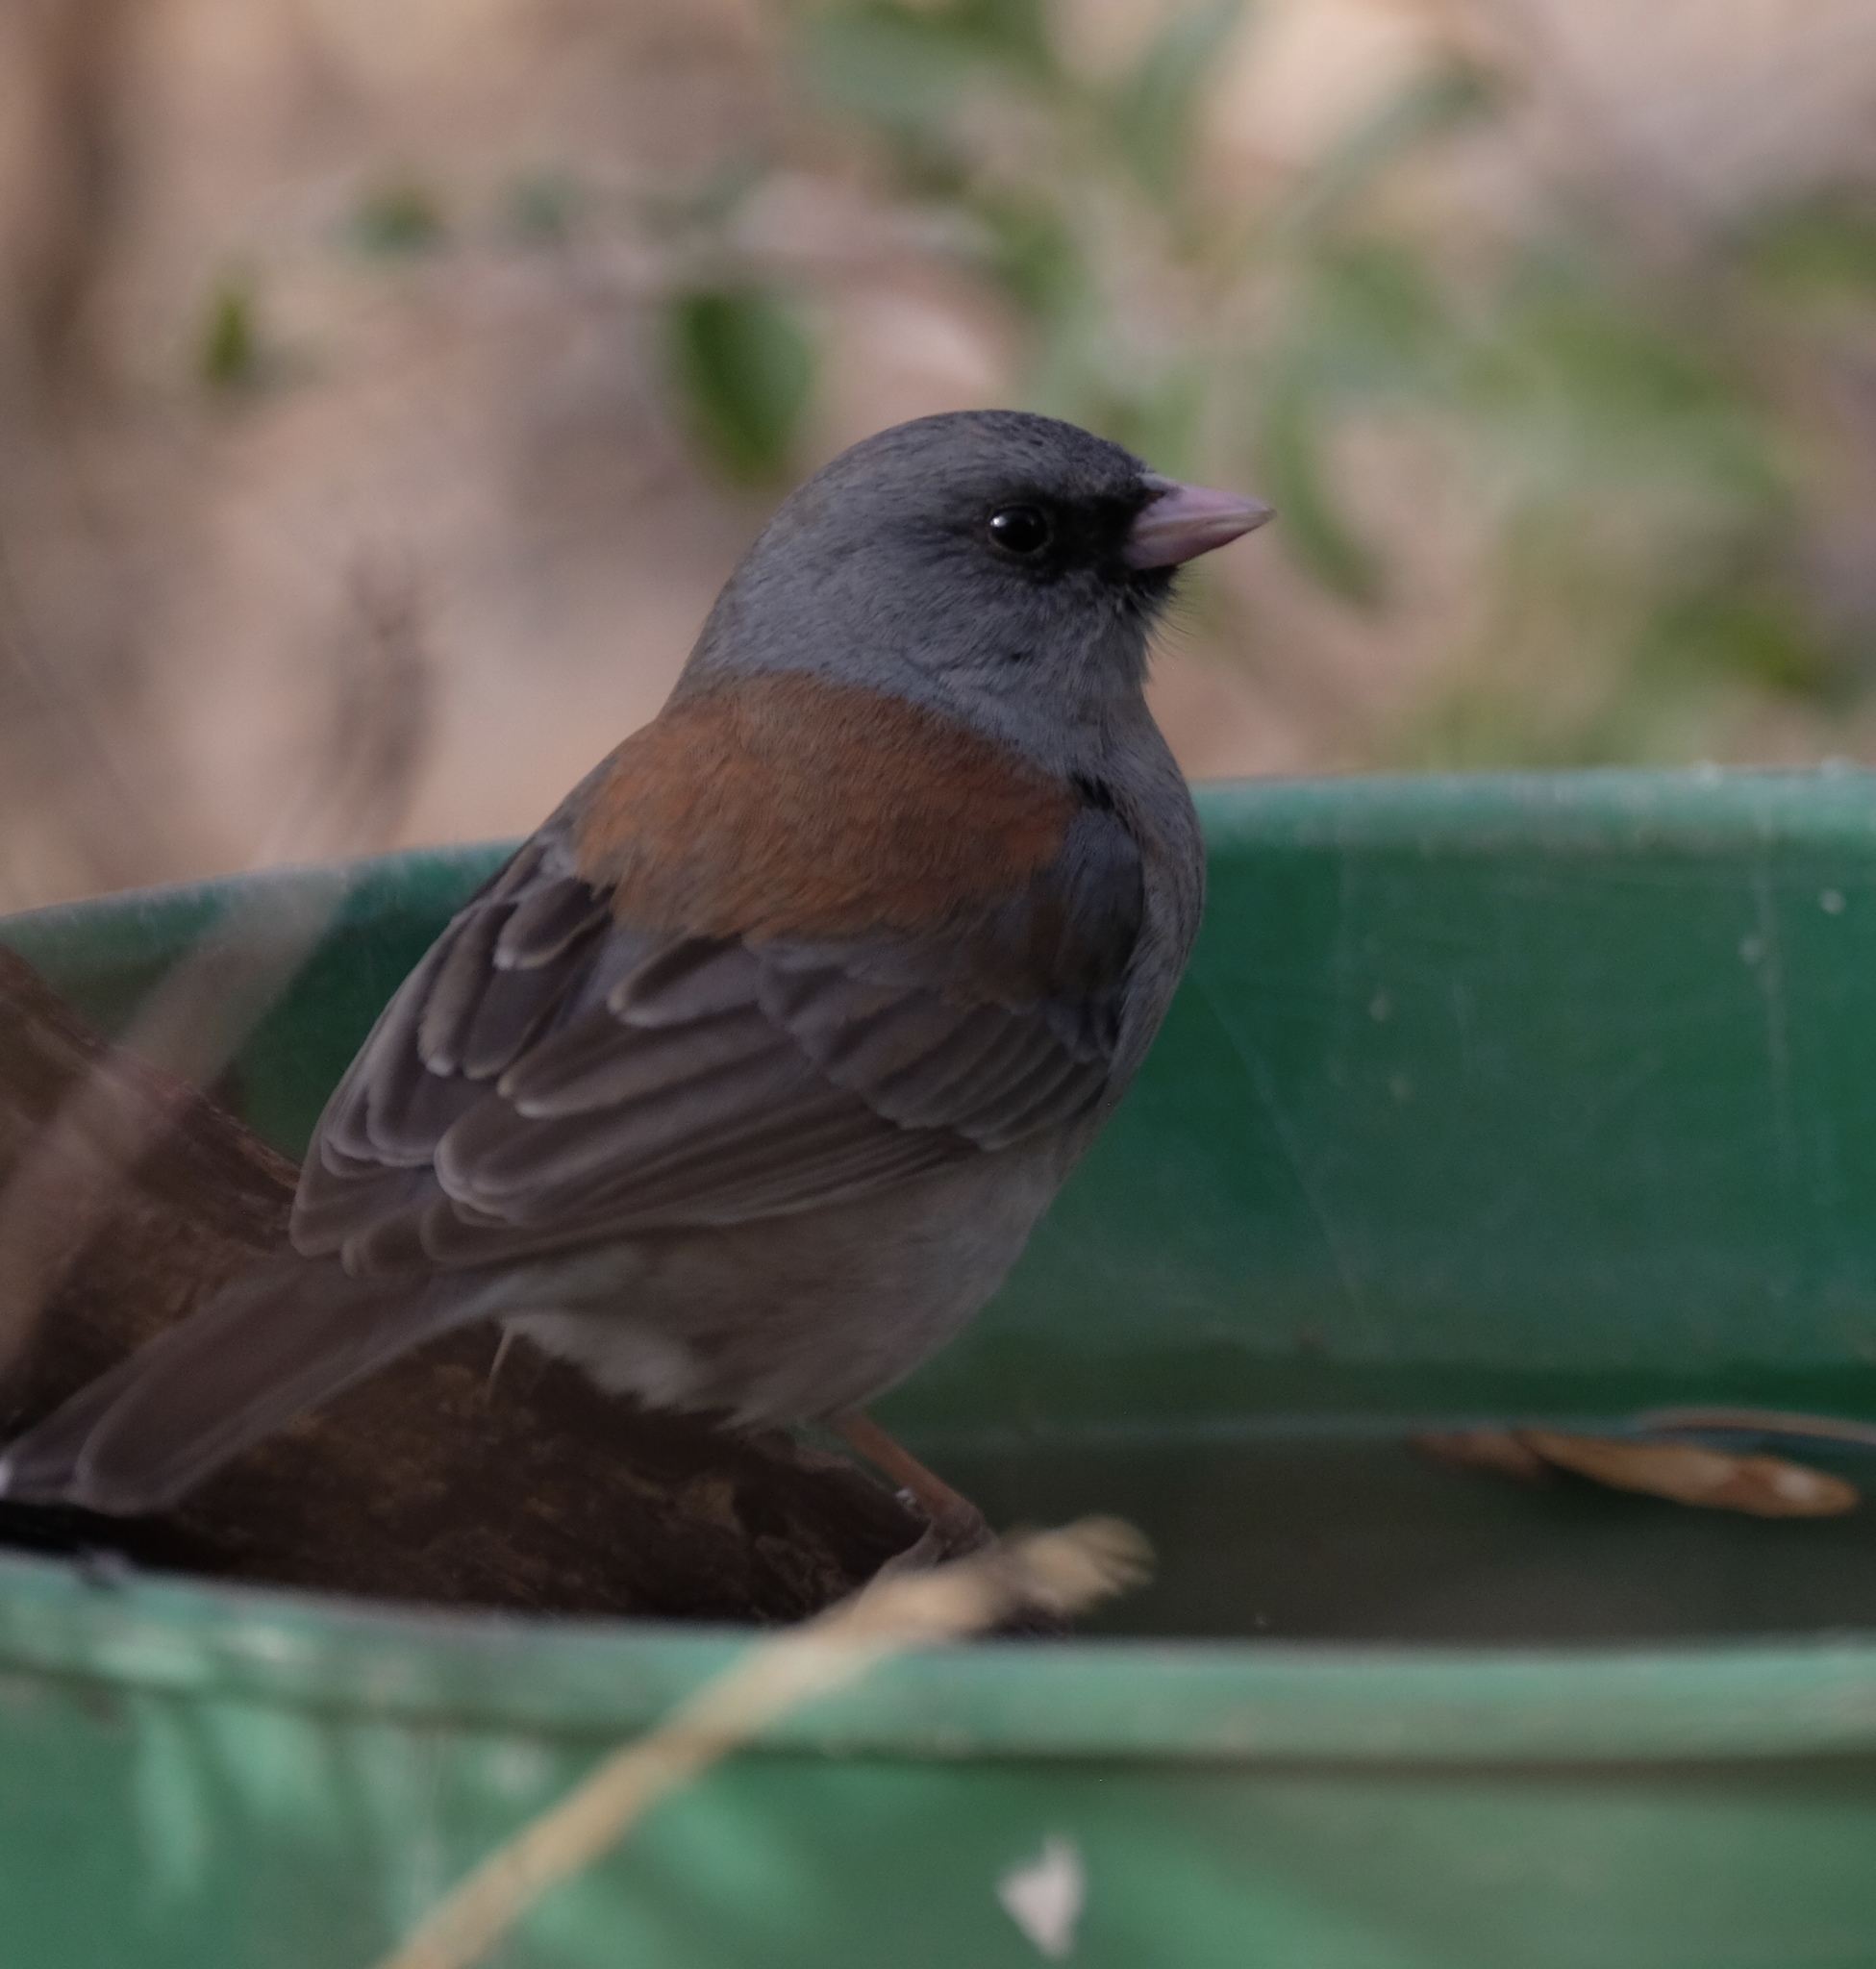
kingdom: Animalia
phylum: Chordata
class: Aves
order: Passeriformes
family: Passerellidae
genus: Junco
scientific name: Junco hyemalis
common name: Dark-eyed junco
